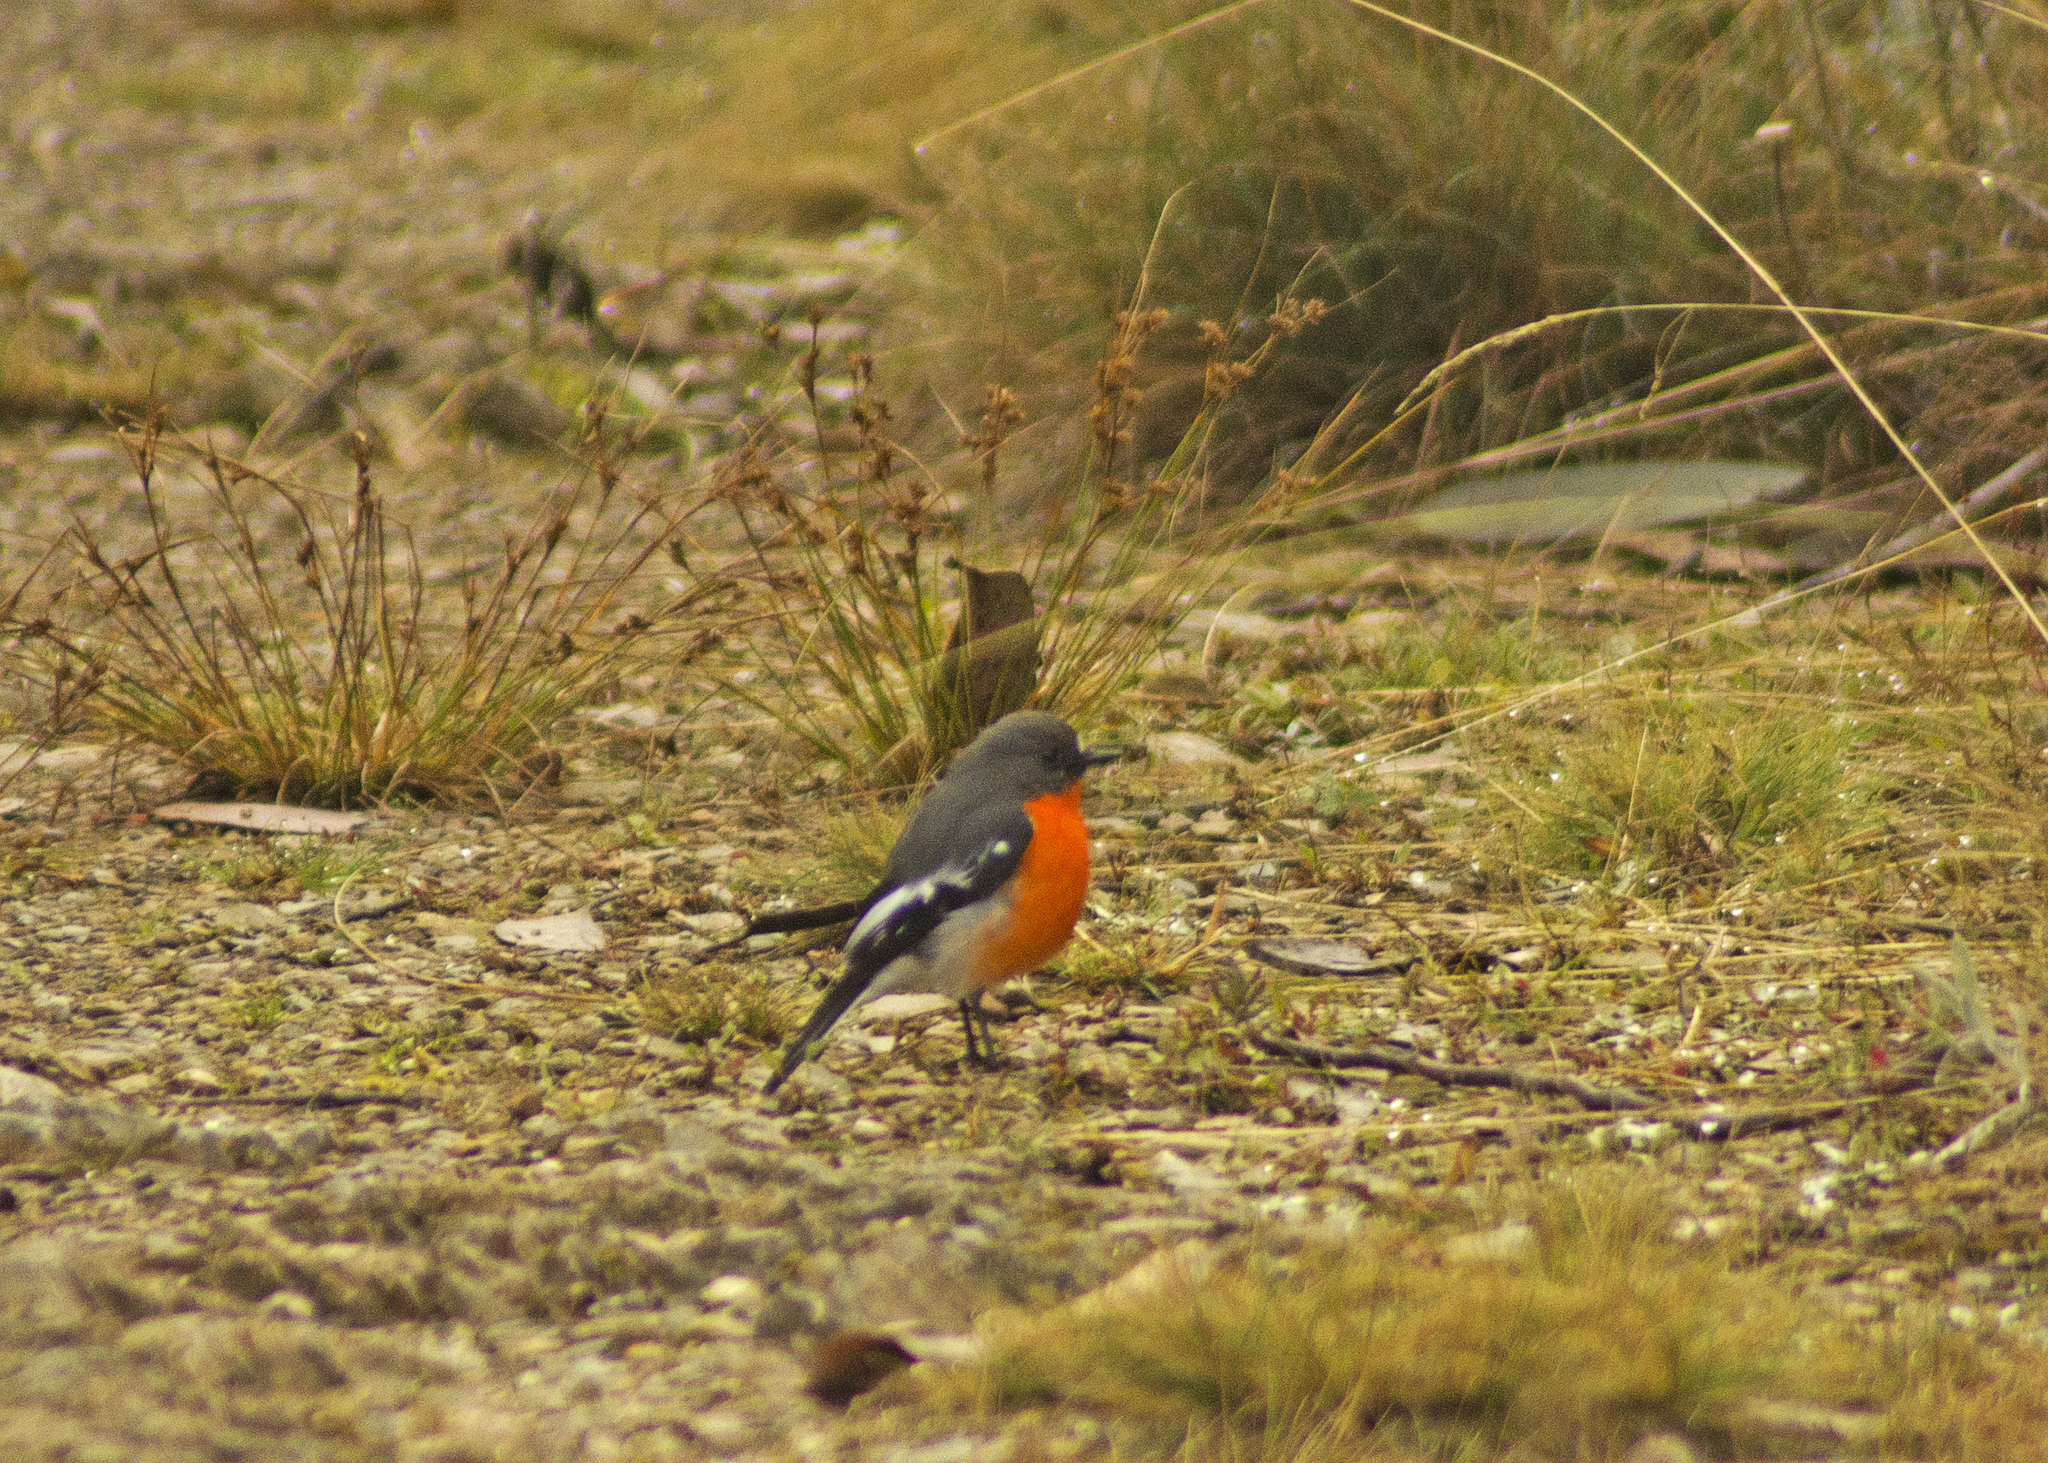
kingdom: Animalia
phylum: Chordata
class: Aves
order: Passeriformes
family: Petroicidae
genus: Petroica
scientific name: Petroica phoenicea
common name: Flame robin
